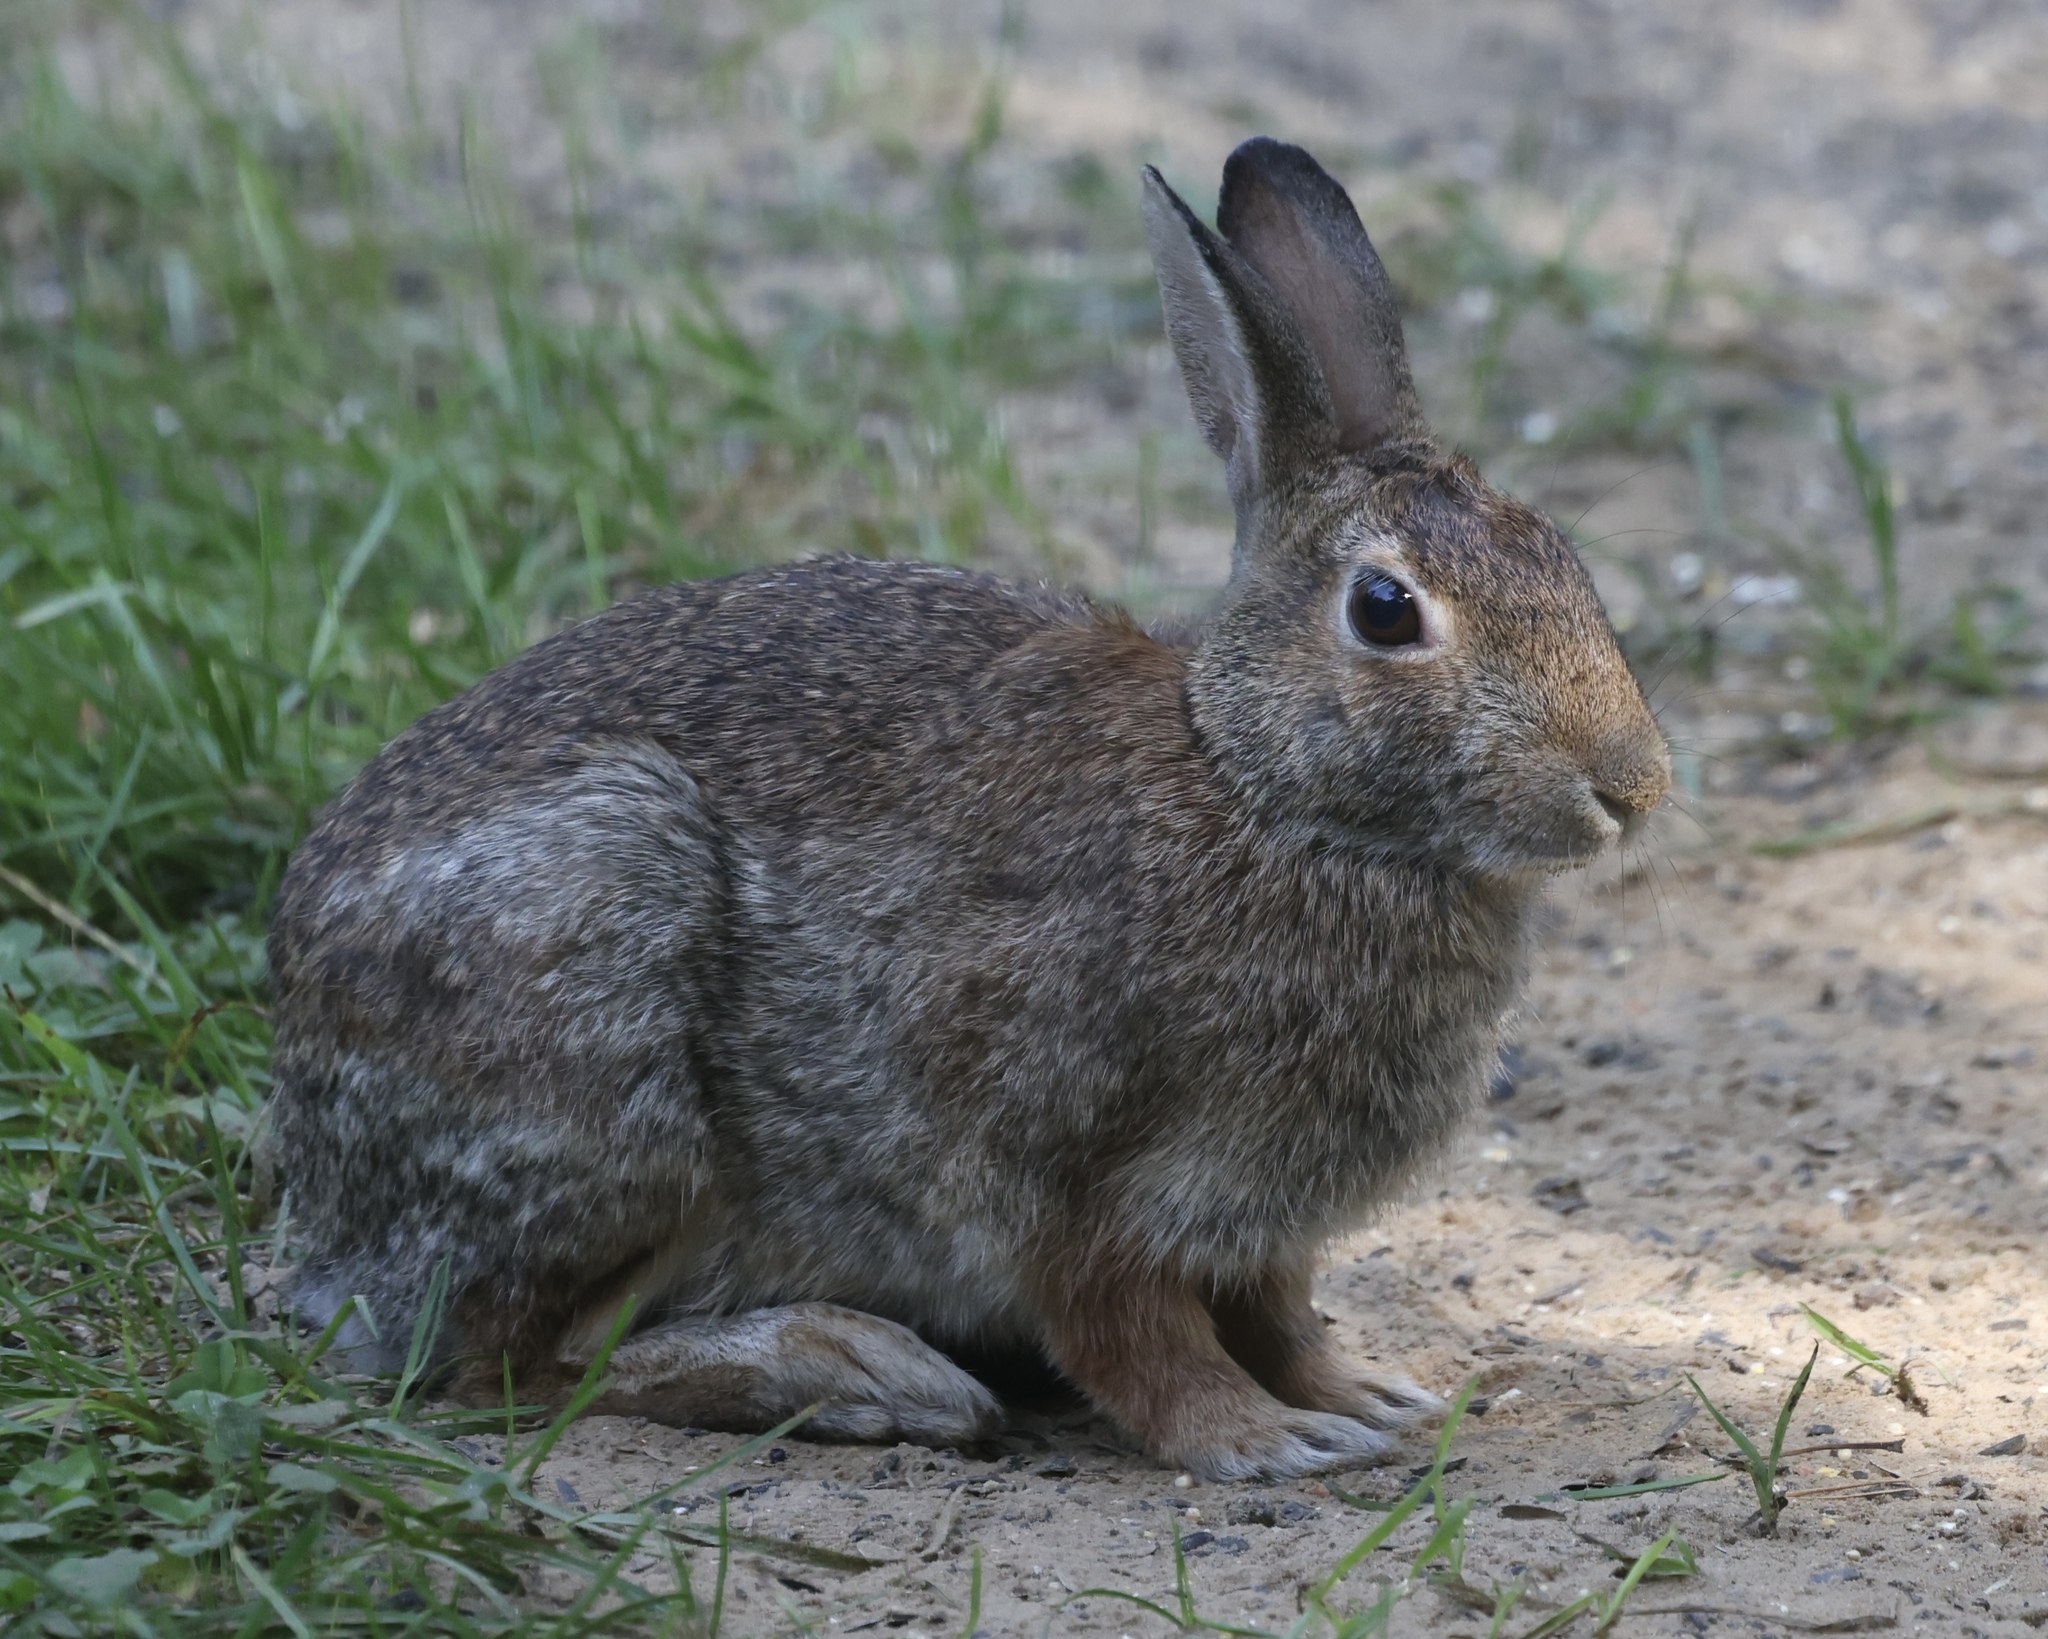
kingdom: Animalia
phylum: Chordata
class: Mammalia
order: Lagomorpha
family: Leporidae
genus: Sylvilagus
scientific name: Sylvilagus floridanus
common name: Eastern cottontail
